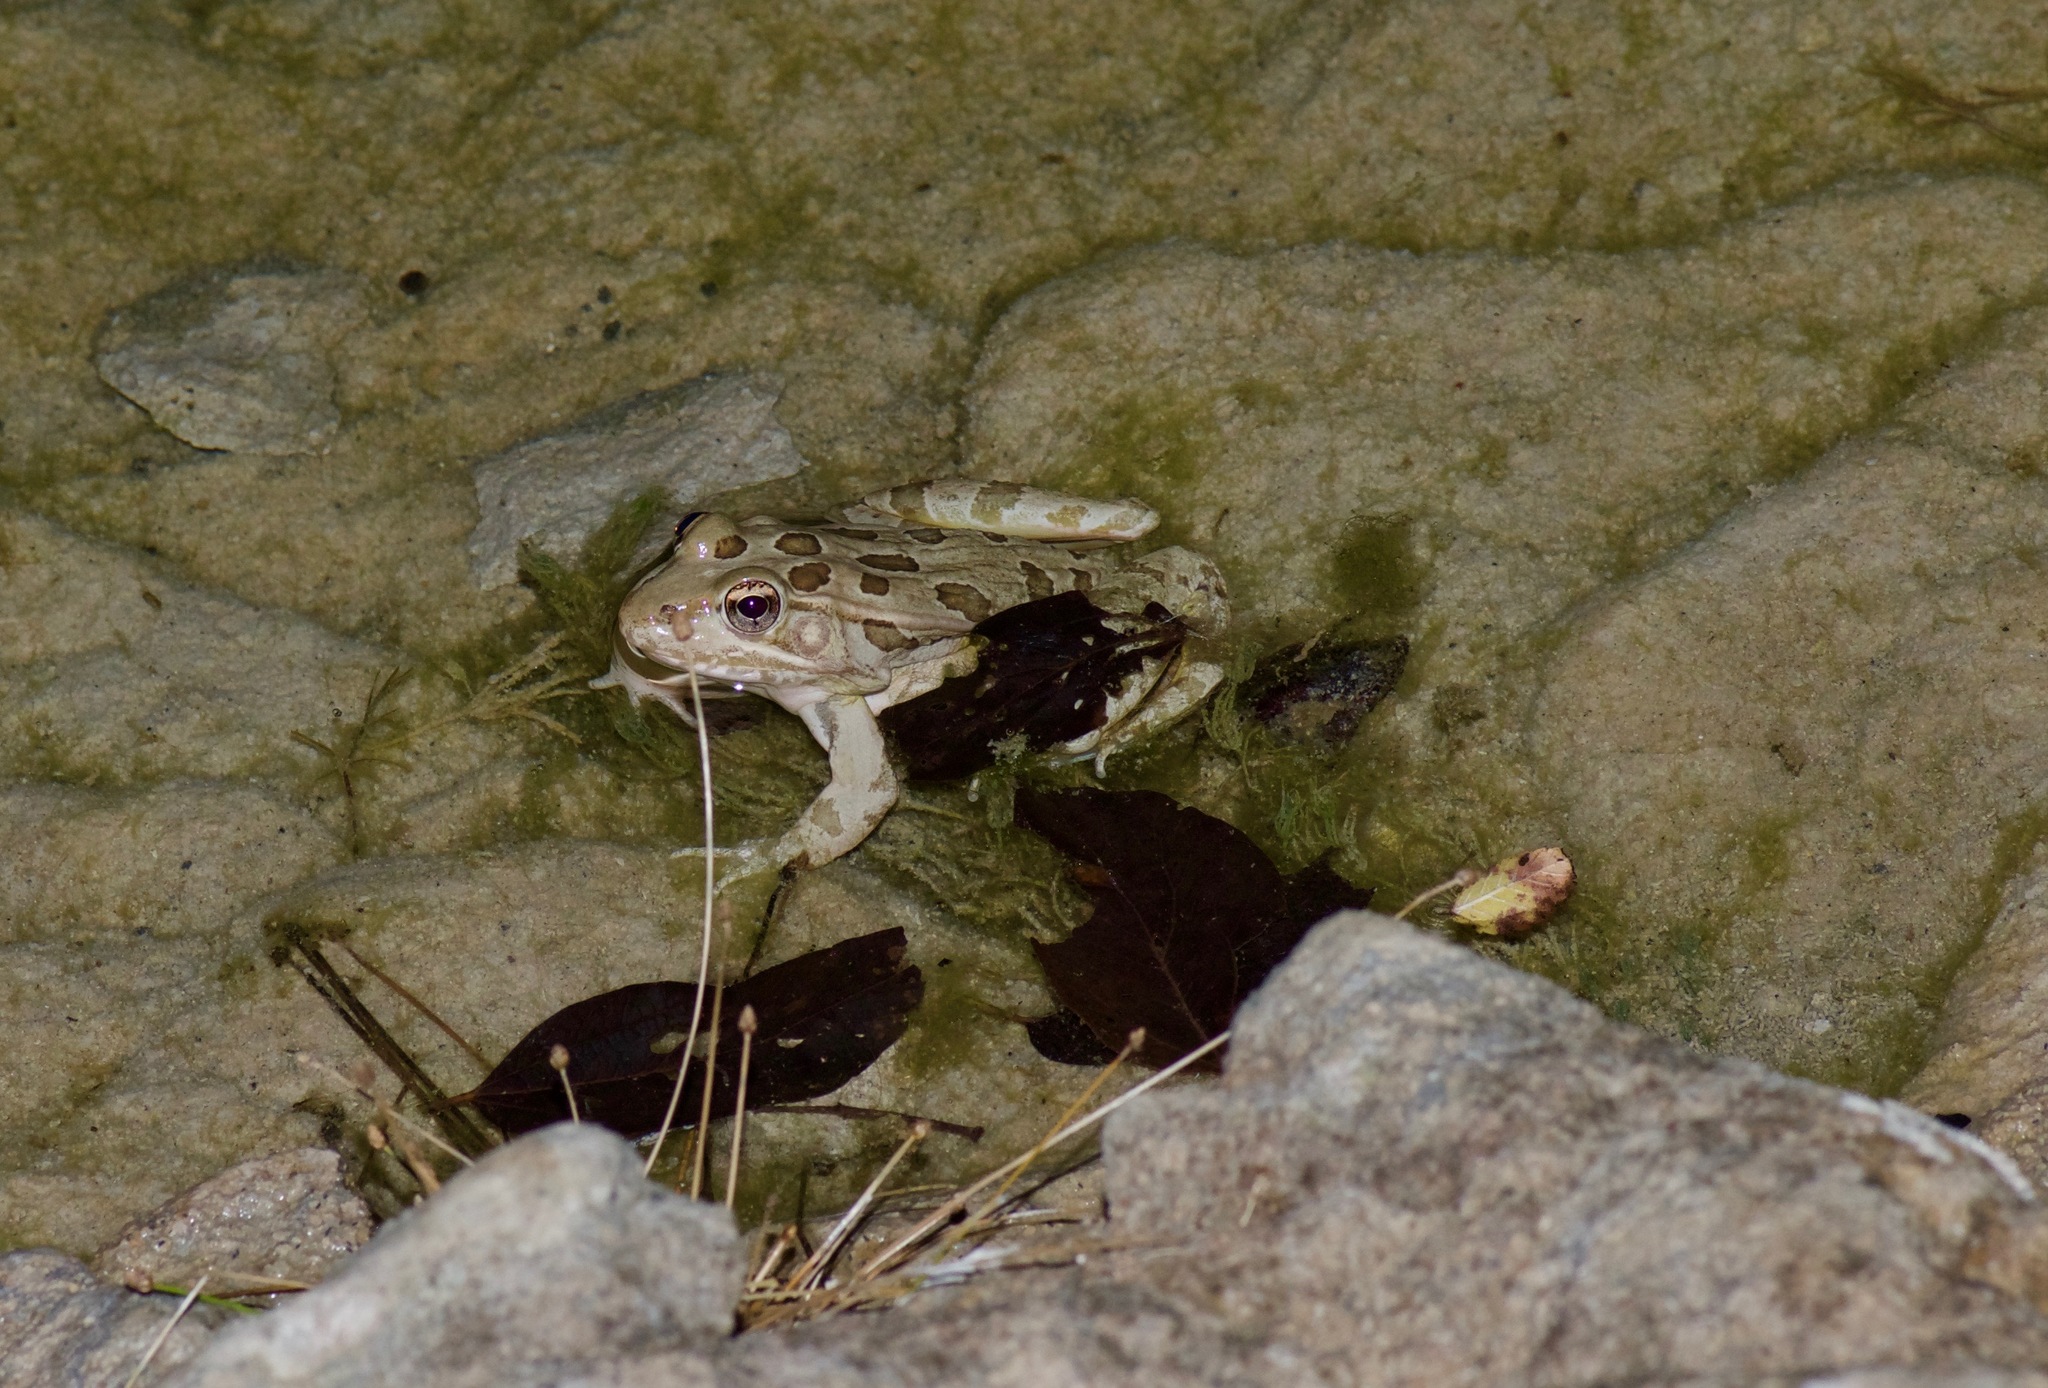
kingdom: Animalia
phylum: Chordata
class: Amphibia
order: Anura
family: Ranidae
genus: Lithobates
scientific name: Lithobates berlandieri
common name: Rio grande leopard frog
